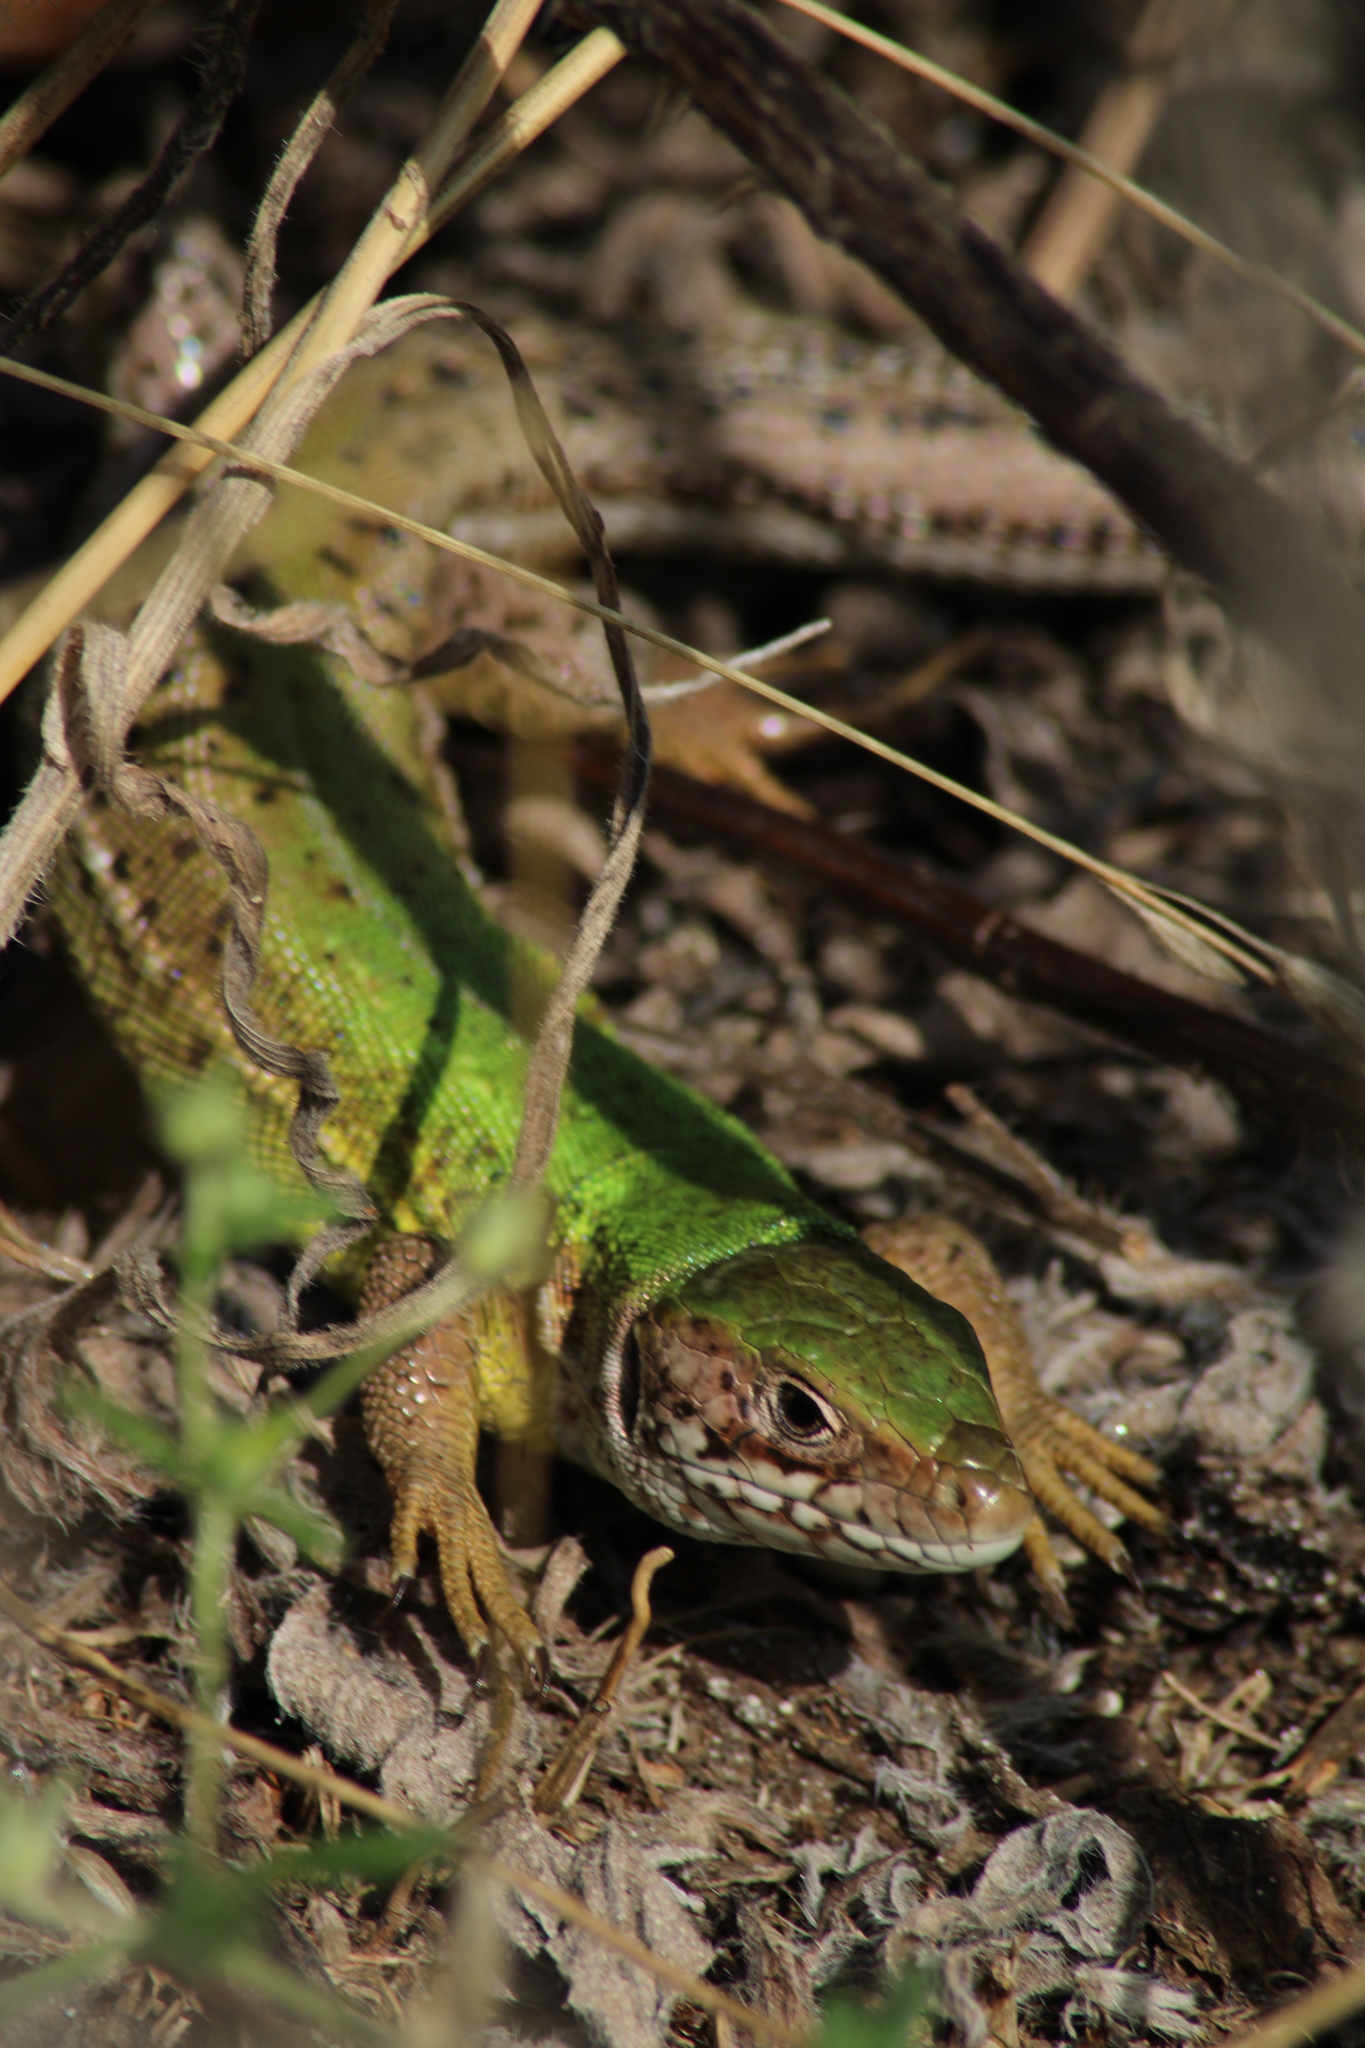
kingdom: Animalia
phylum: Chordata
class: Squamata
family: Lacertidae
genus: Lacerta
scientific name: Lacerta viridis
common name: European green lizard
